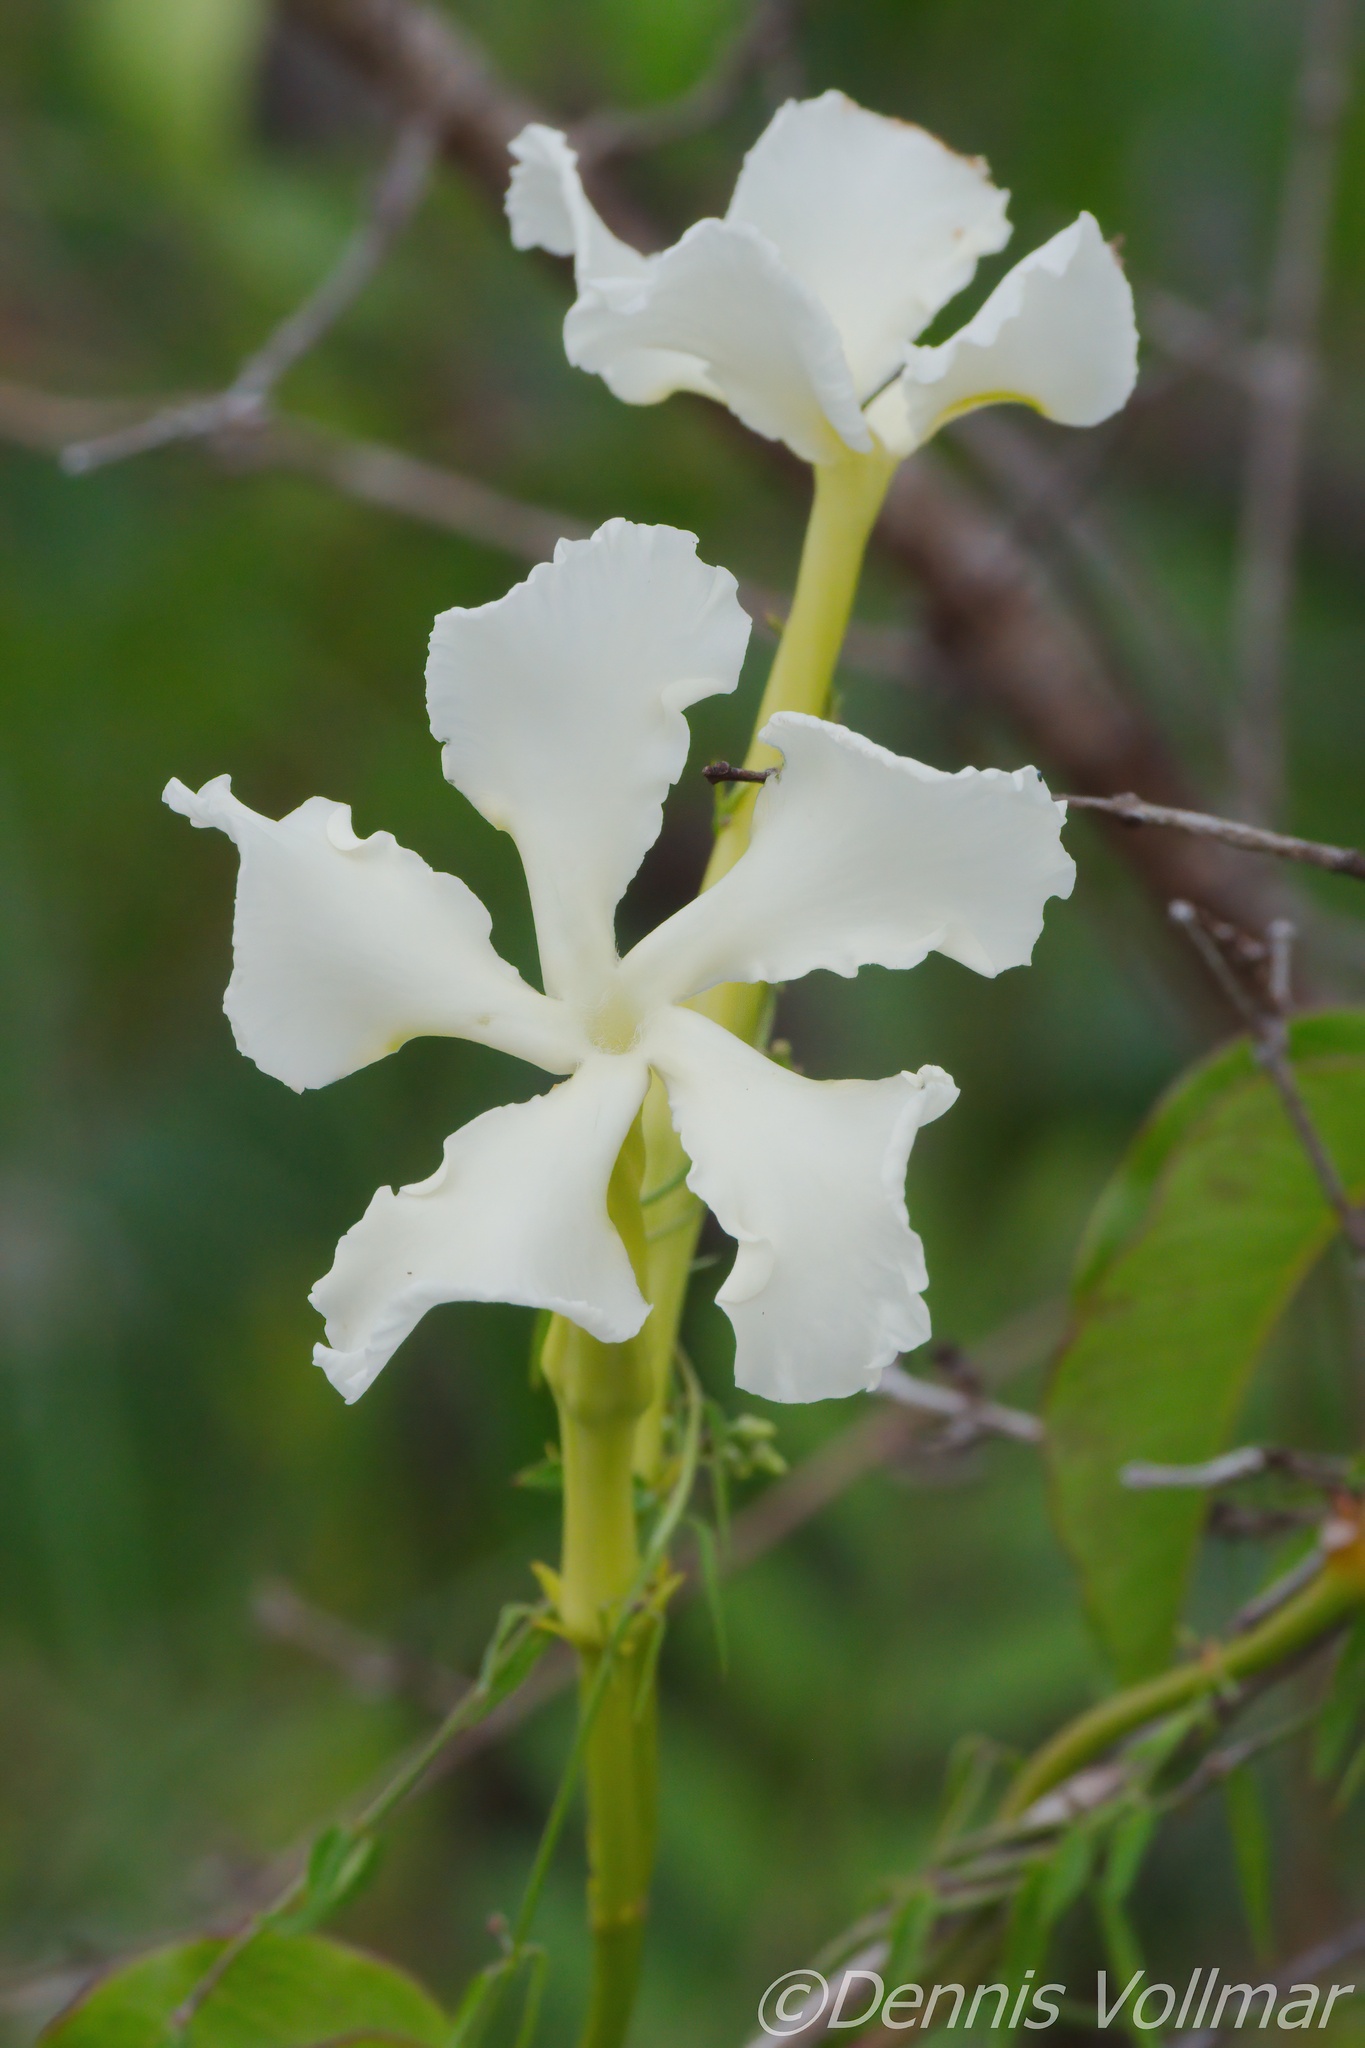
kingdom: Plantae
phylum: Tracheophyta
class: Magnoliopsida
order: Gentianales
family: Apocynaceae
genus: Echites
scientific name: Echites umbellatus
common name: Devil's potato
